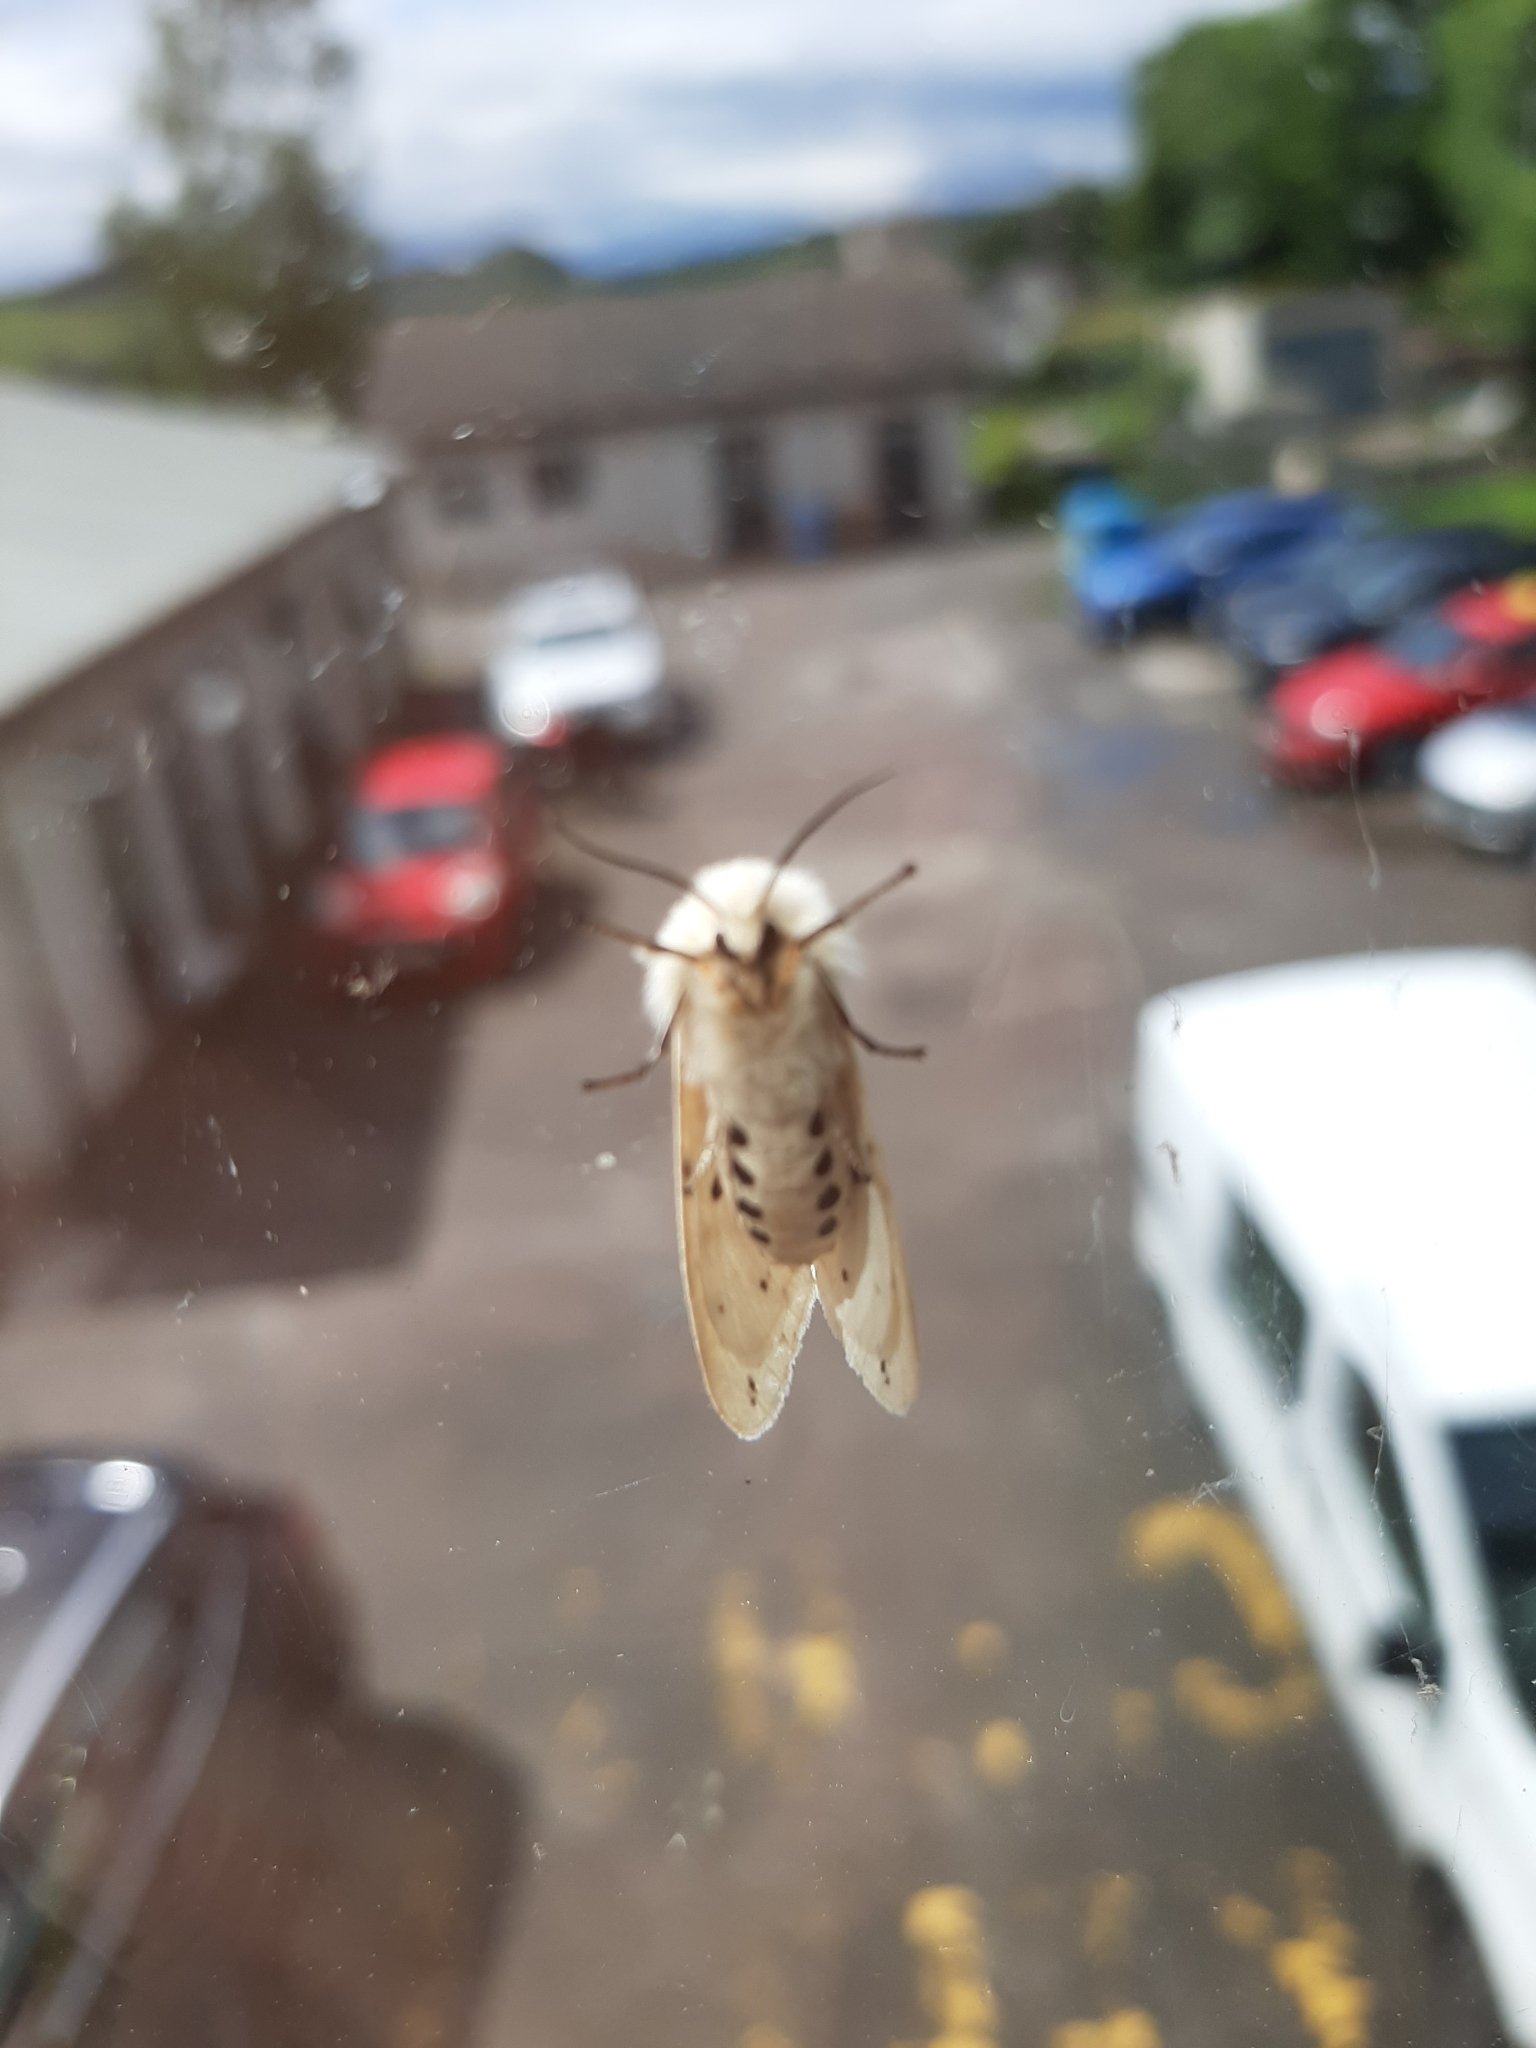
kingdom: Animalia
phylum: Arthropoda
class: Insecta
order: Lepidoptera
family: Erebidae
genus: Spilosoma
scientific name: Spilosoma lubricipeda
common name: White ermine
